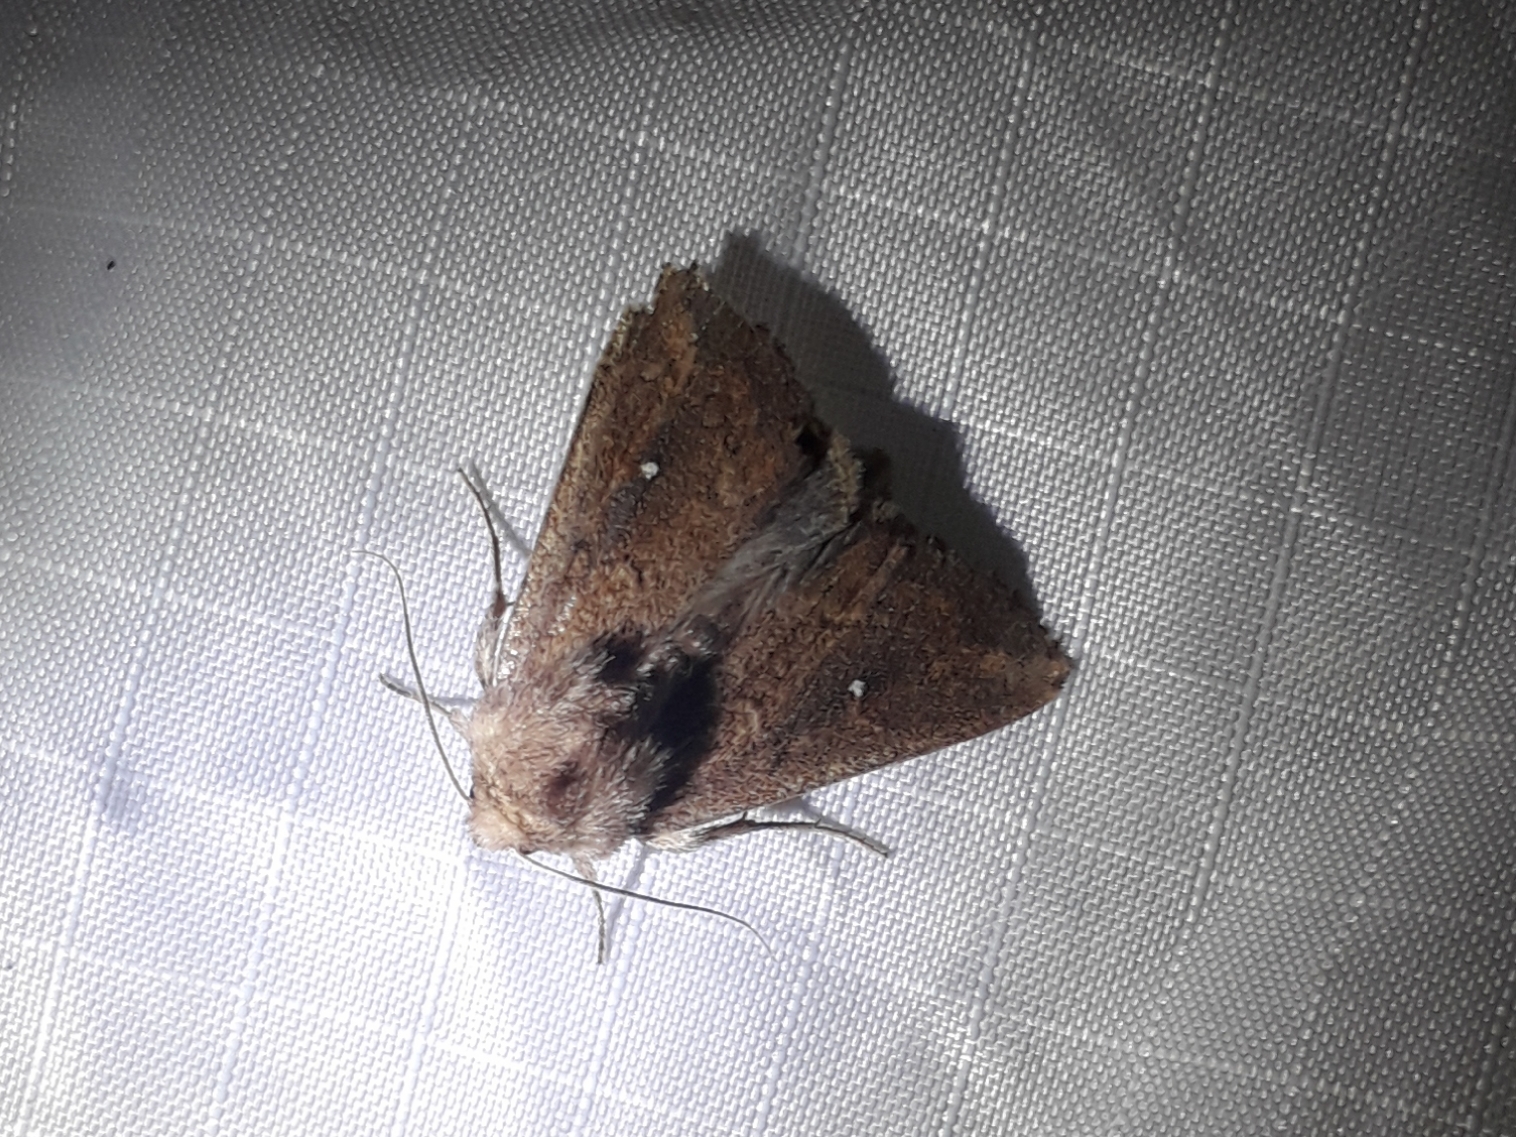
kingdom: Animalia
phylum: Arthropoda
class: Insecta
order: Lepidoptera
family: Noctuidae
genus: Mythimna
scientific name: Mythimna albipuncta
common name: White-point
